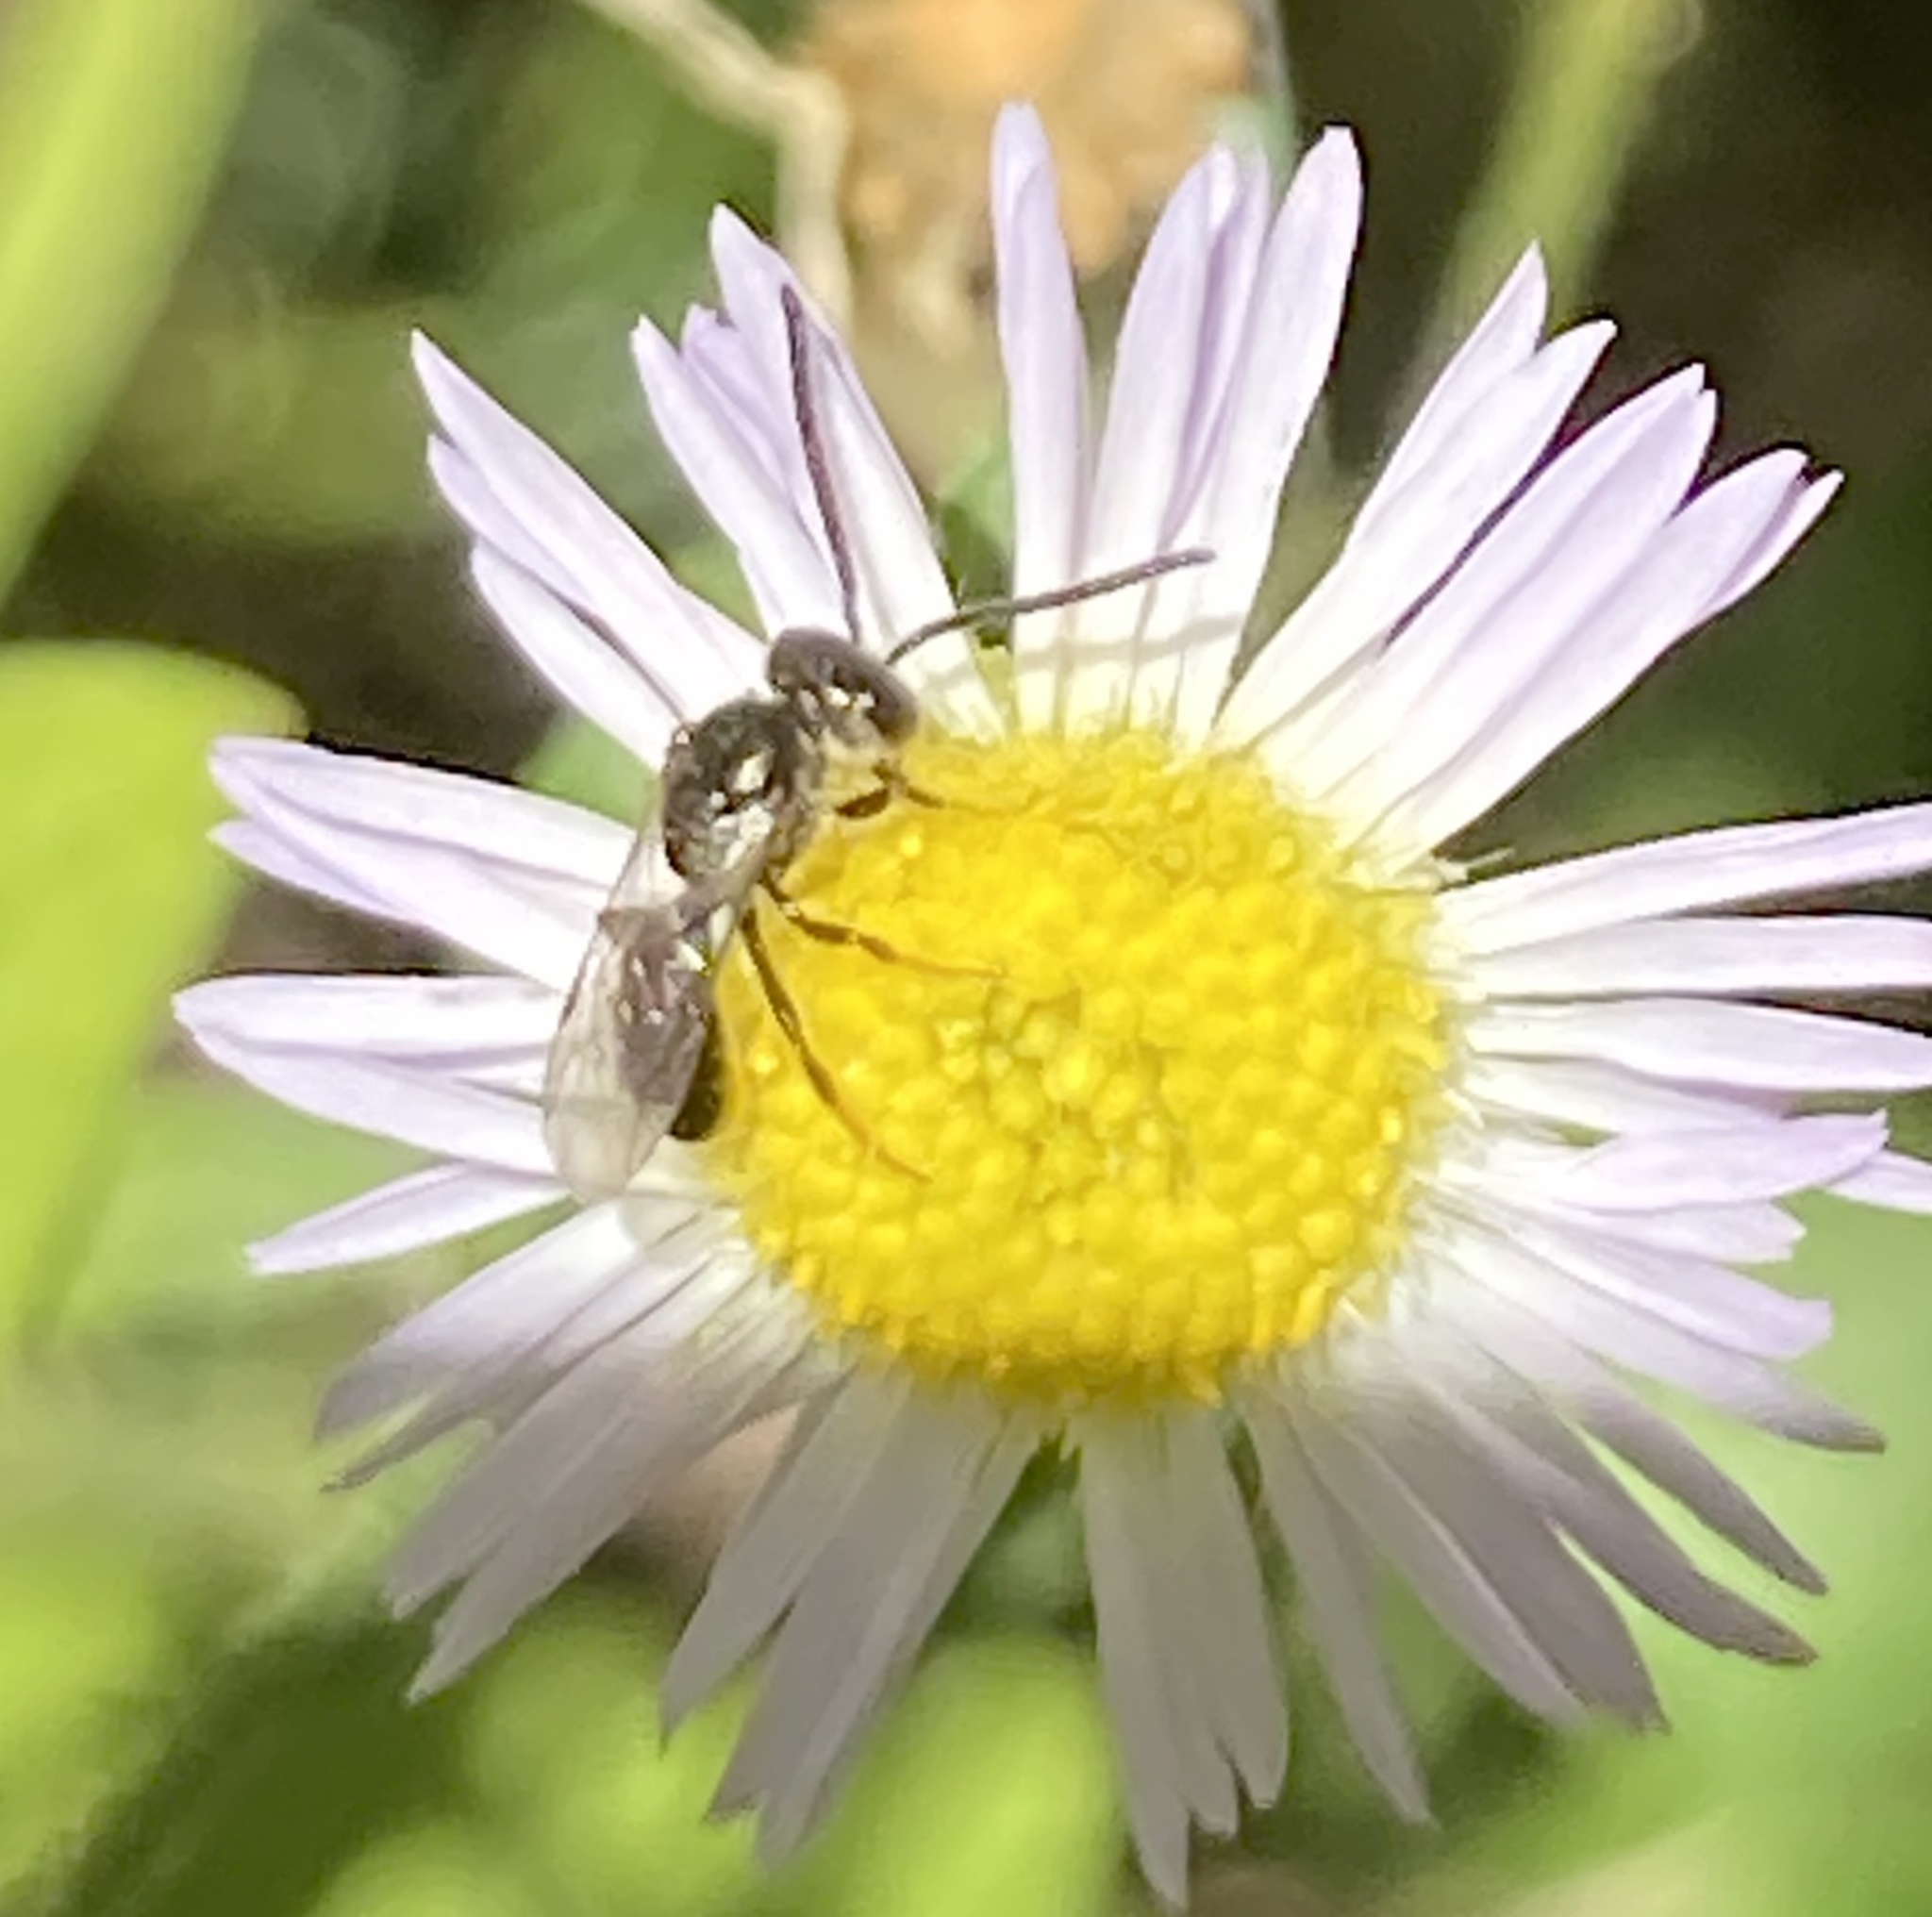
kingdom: Animalia
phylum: Arthropoda
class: Insecta
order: Hymenoptera
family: Halictidae
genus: Dialictus
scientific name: Dialictus
